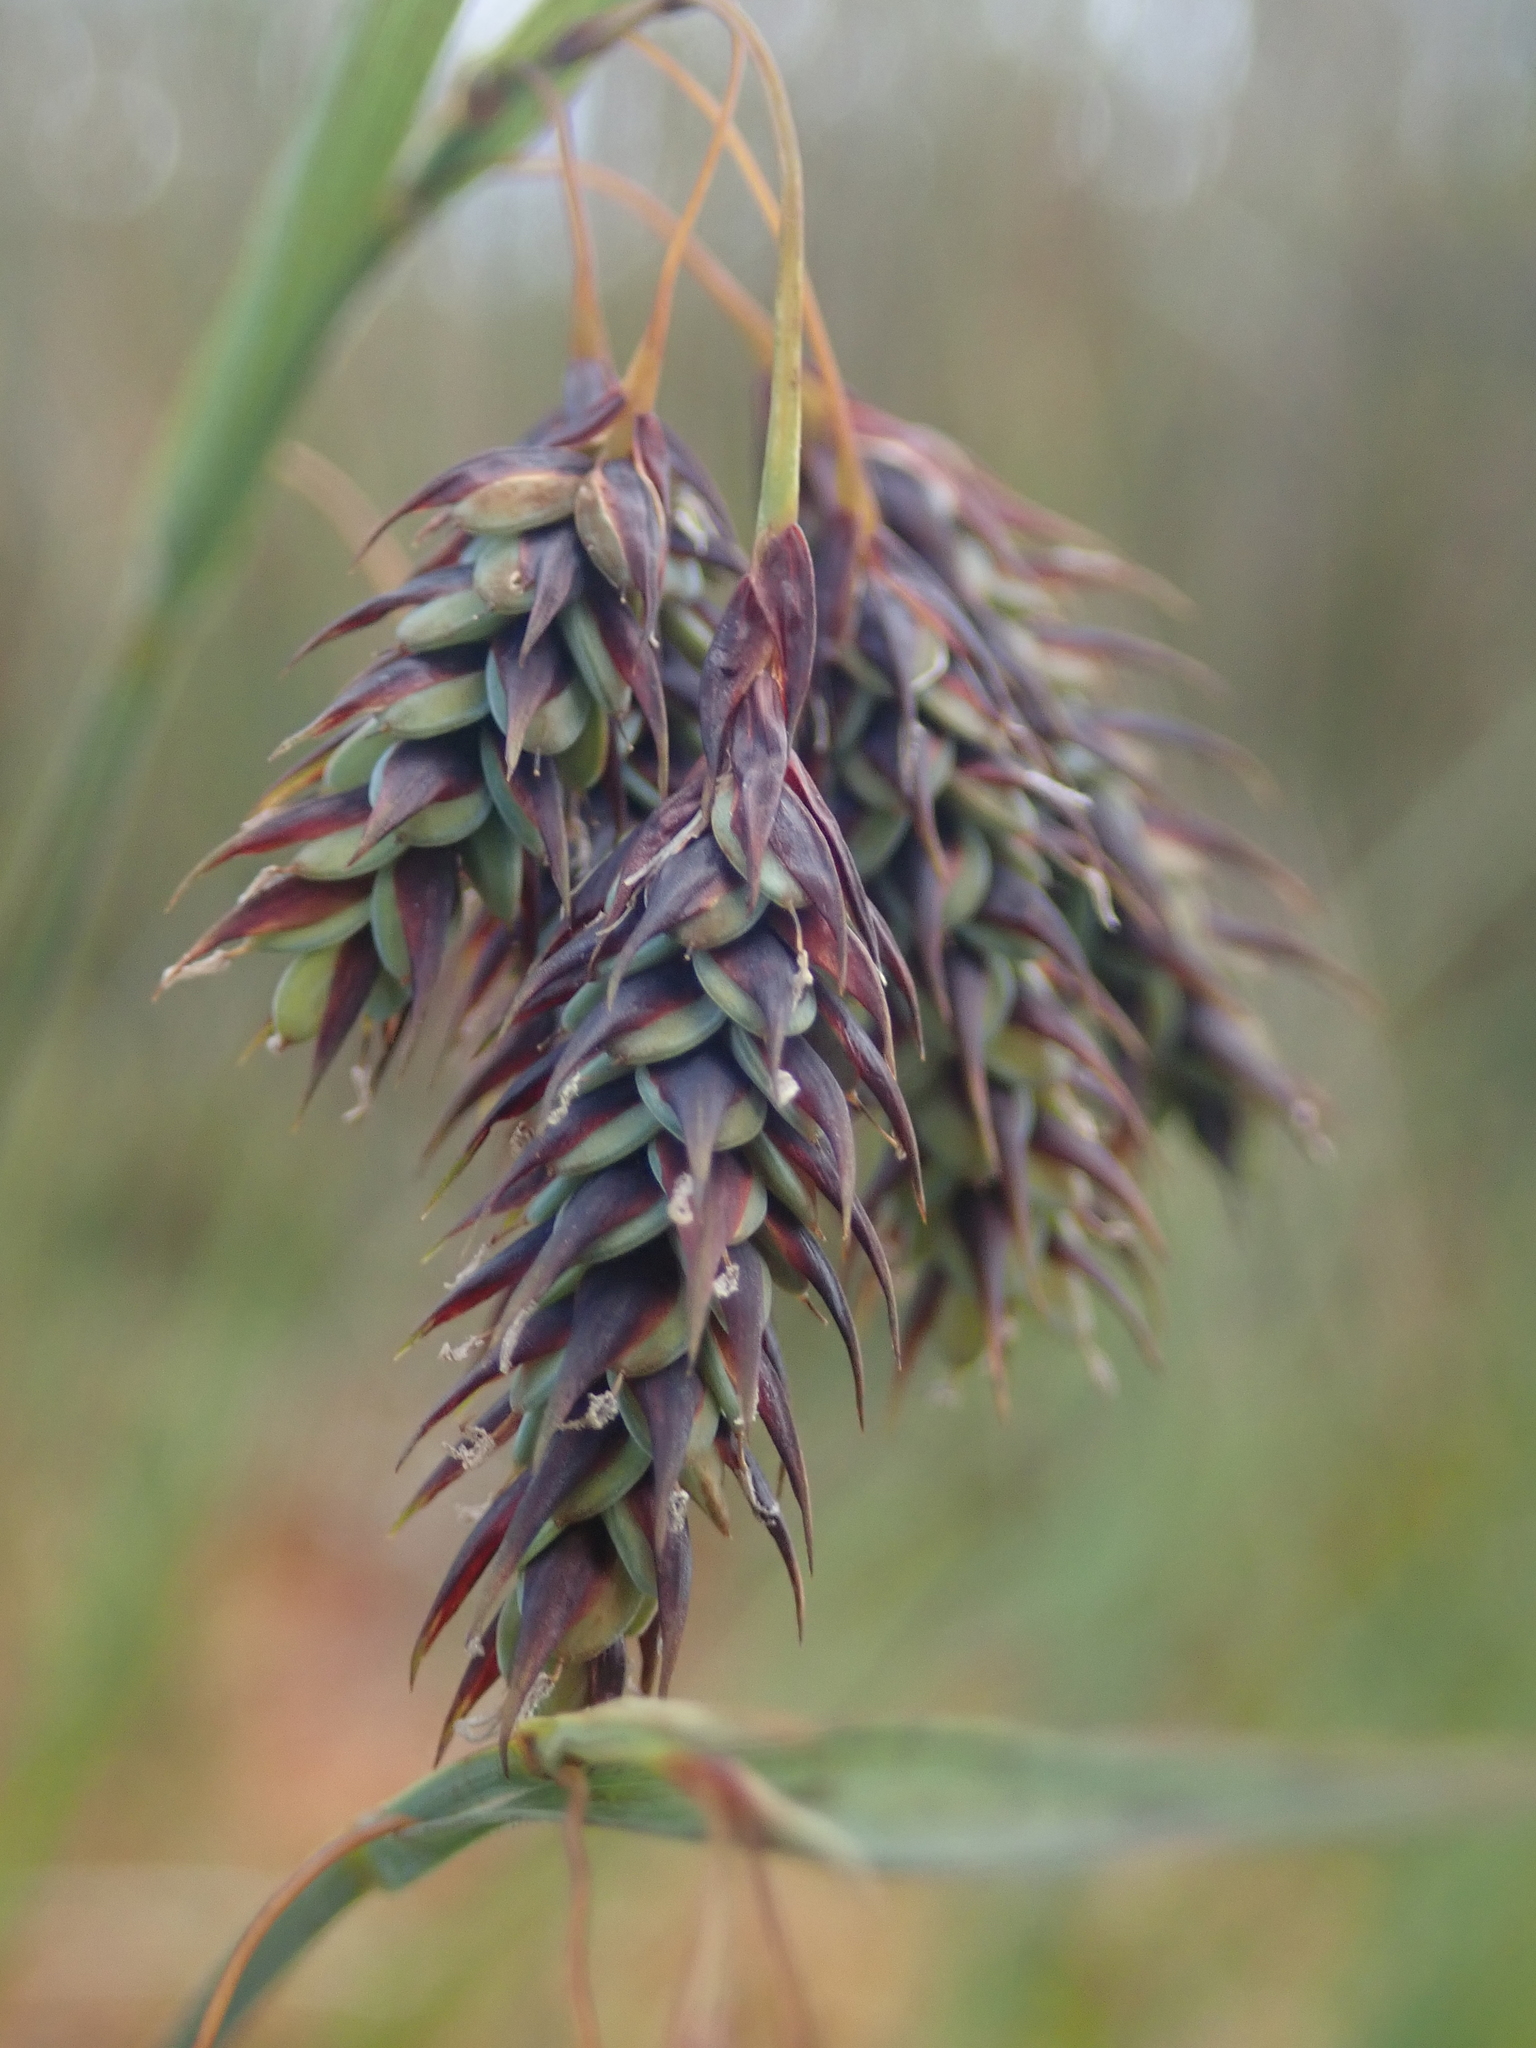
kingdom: Plantae
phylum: Tracheophyta
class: Liliopsida
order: Poales
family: Cyperaceae
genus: Carex
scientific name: Carex magellanica
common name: Bog sedge
